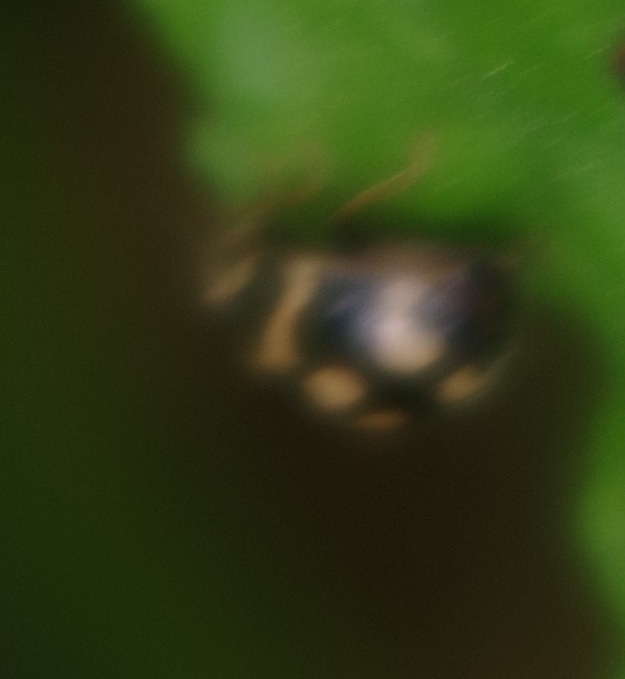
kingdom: Animalia
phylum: Arthropoda
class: Insecta
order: Coleoptera
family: Coccinellidae
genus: Propylaea
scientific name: Propylaea quatuordecimpunctata
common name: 14-spotted ladybird beetle
